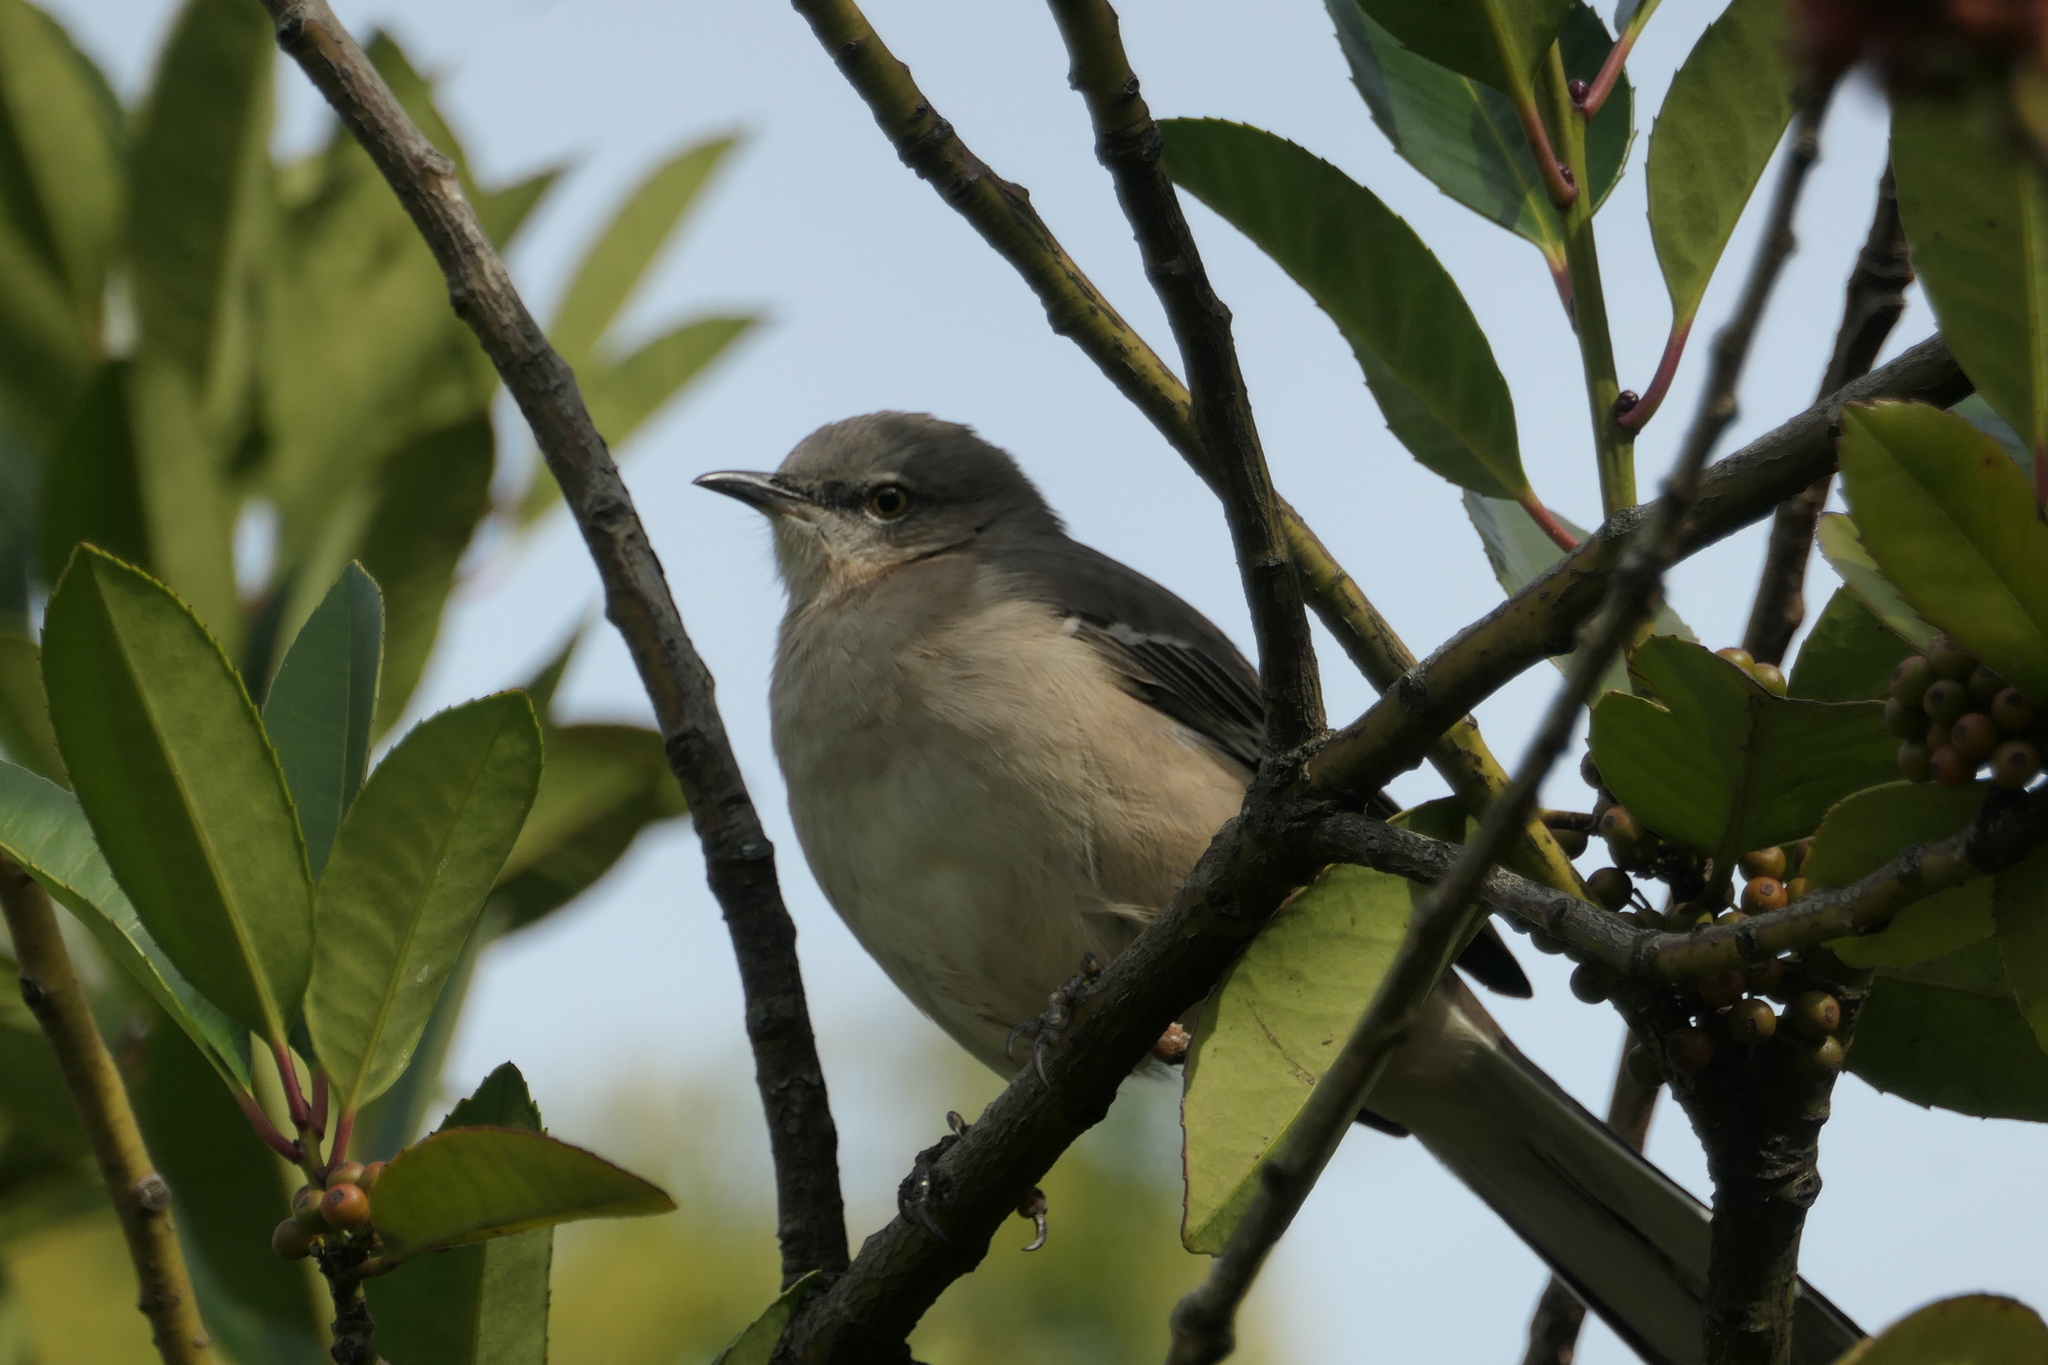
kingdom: Animalia
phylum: Chordata
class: Aves
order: Passeriformes
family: Mimidae
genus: Mimus
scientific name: Mimus polyglottos
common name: Northern mockingbird
